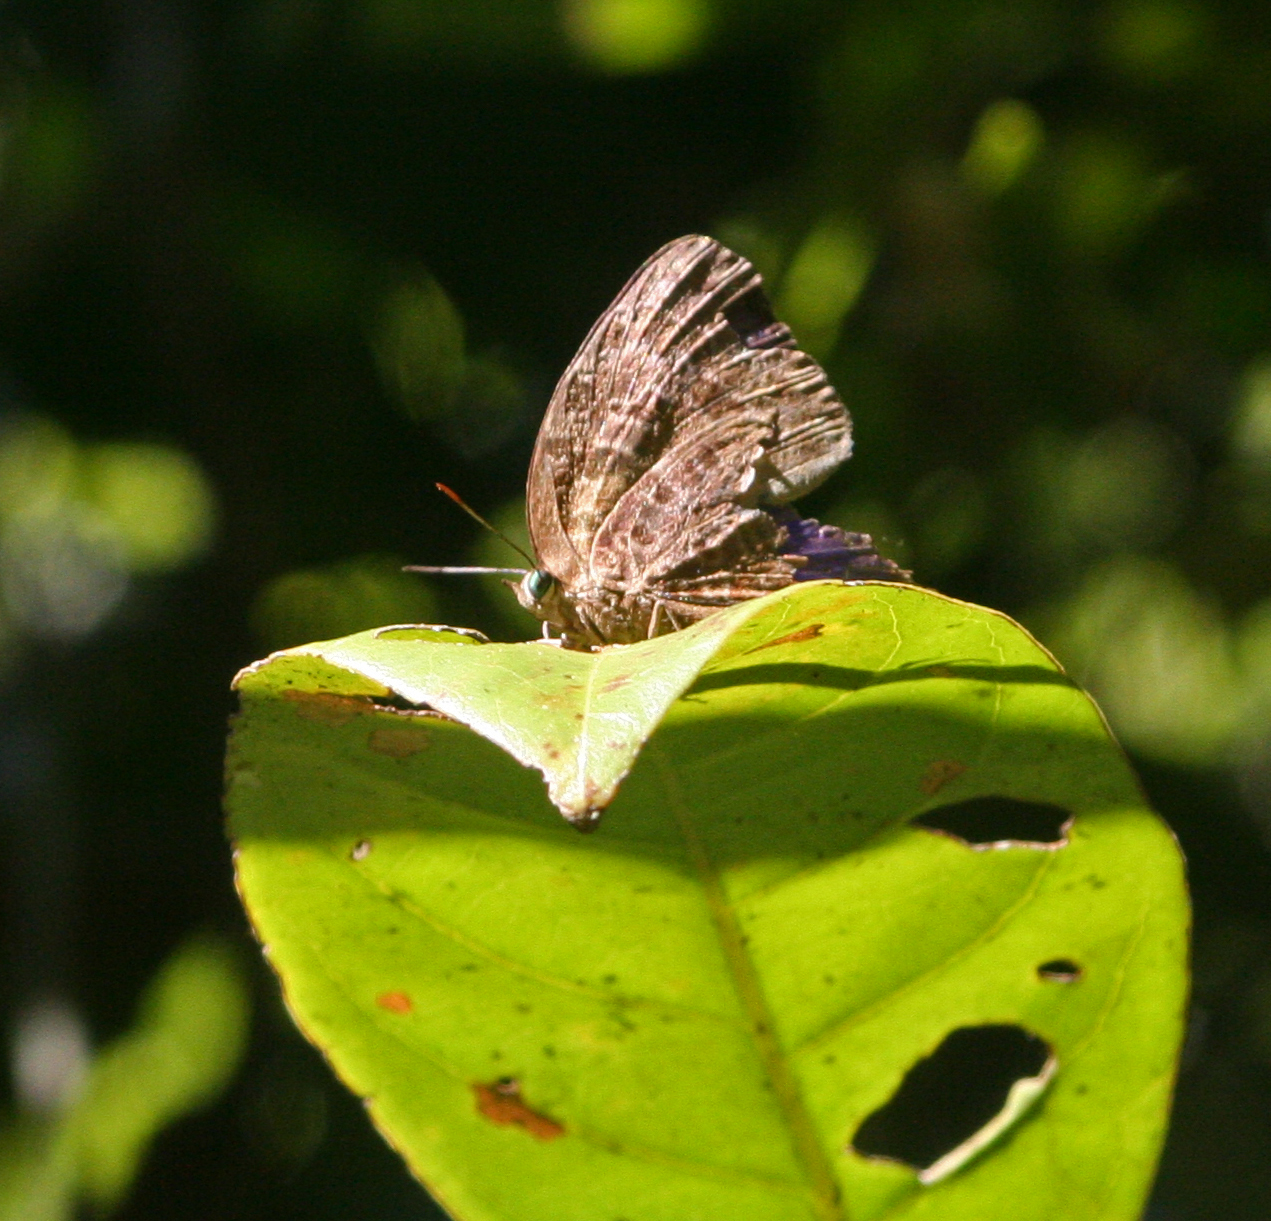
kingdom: Animalia
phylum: Arthropoda
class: Insecta
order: Lepidoptera
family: Lycaenidae
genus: Arhopala
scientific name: Arhopala anthelus
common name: Bushblue
